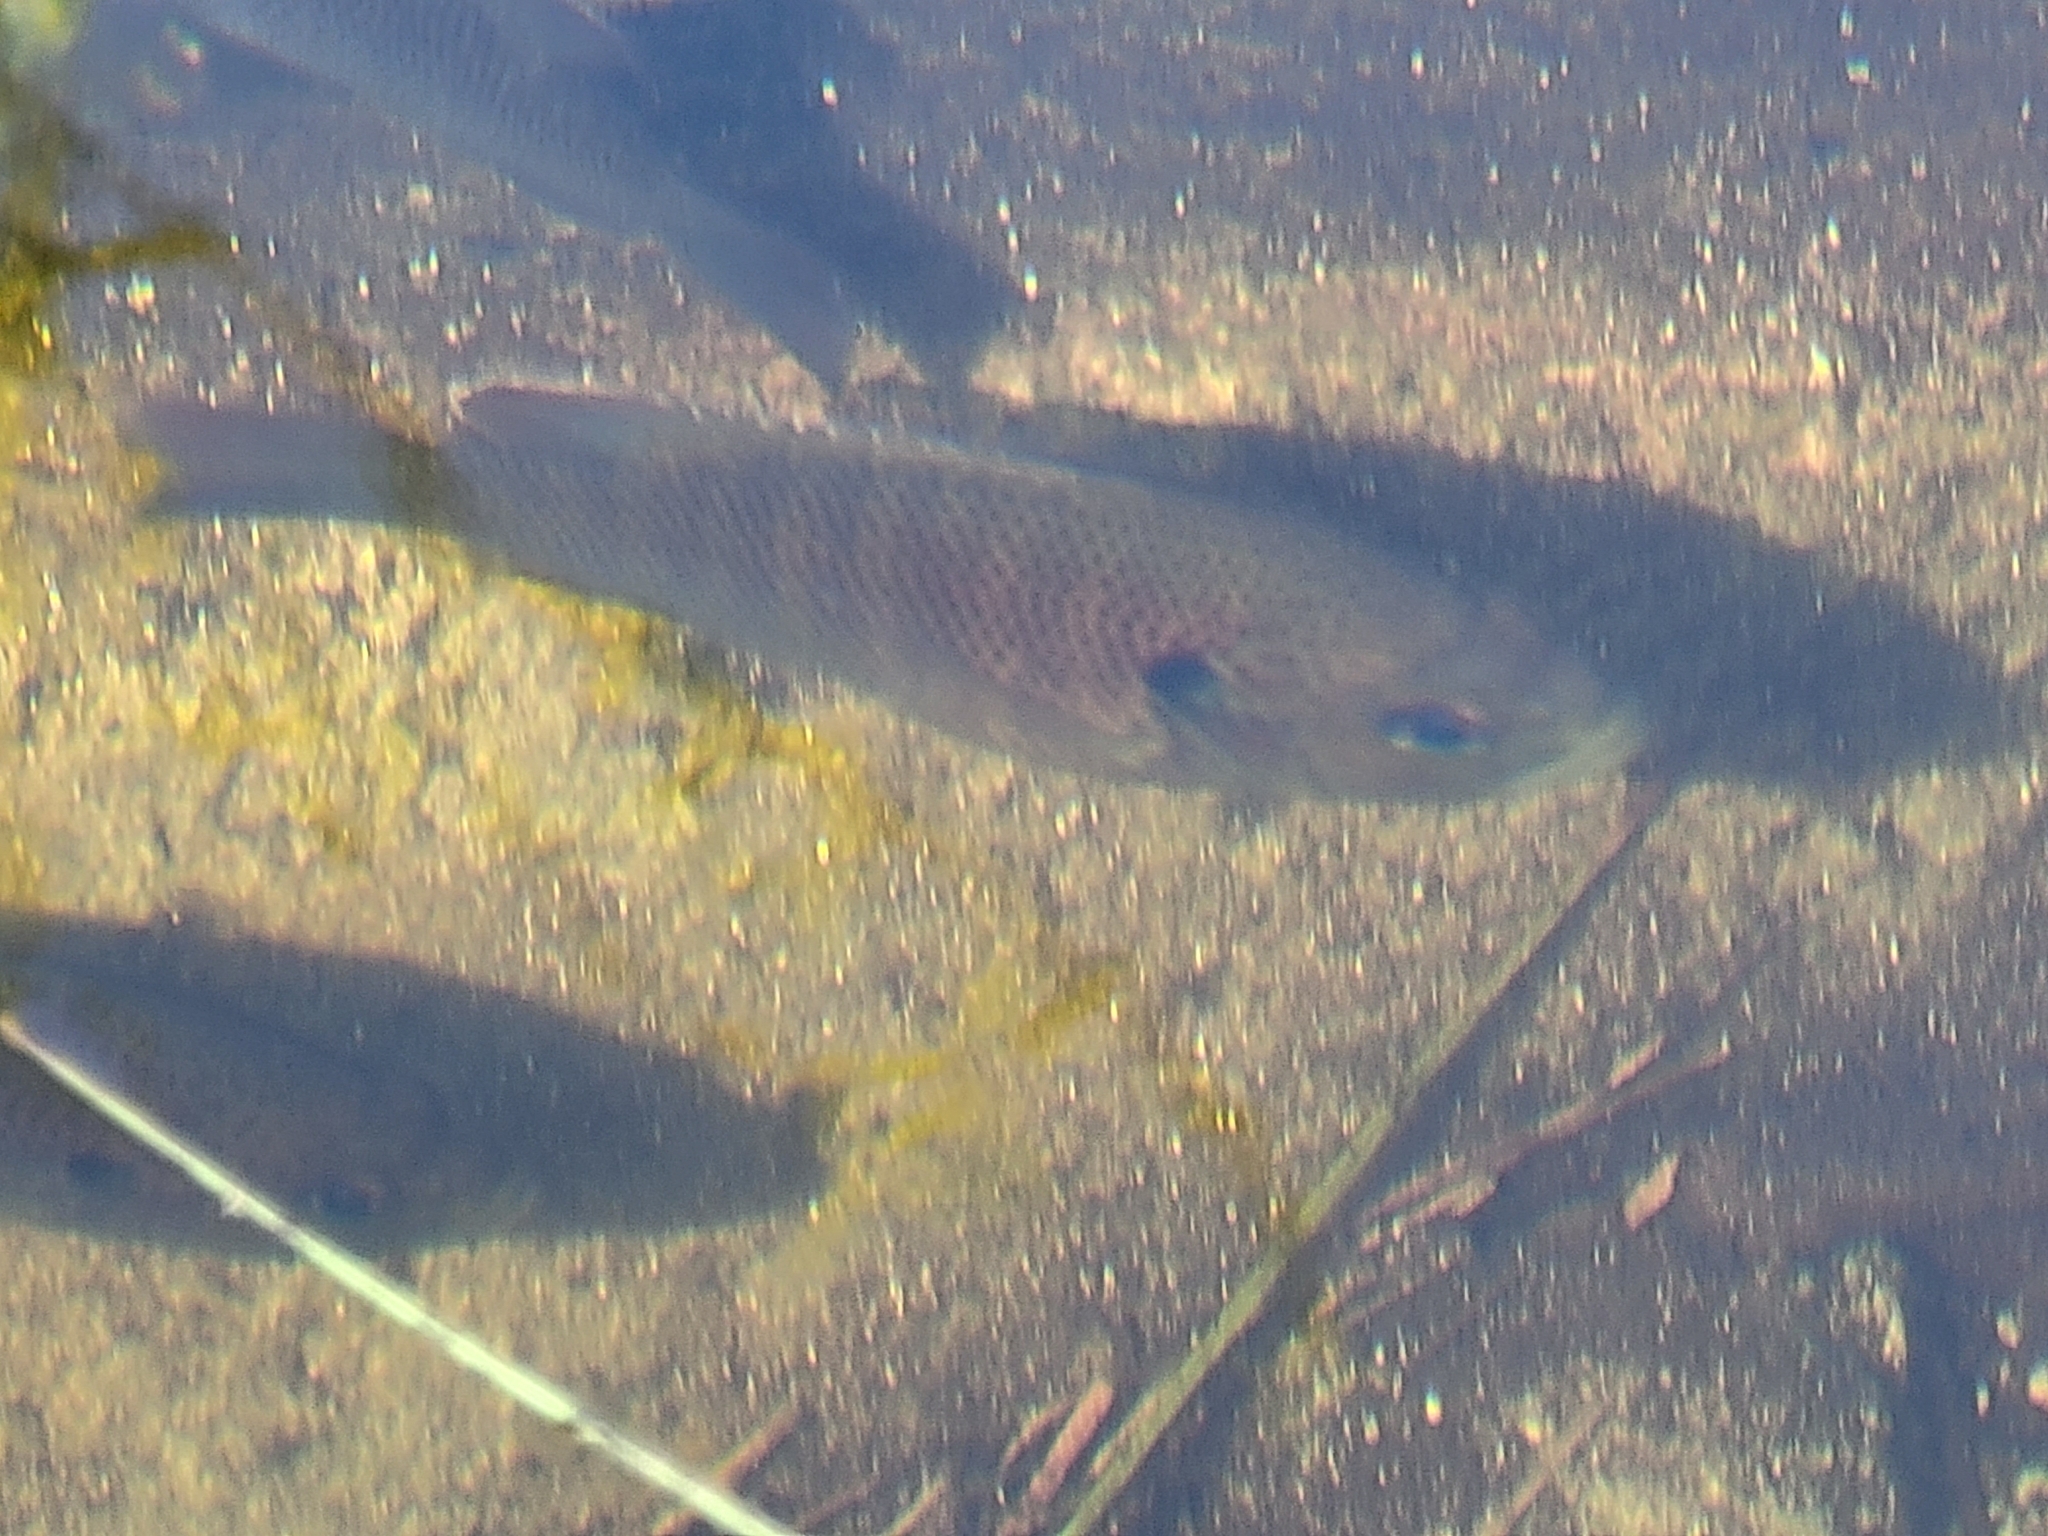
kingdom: Animalia
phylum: Chordata
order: Perciformes
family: Centrarchidae
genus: Lepomis
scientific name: Lepomis punctatus
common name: Spotted sunfish
